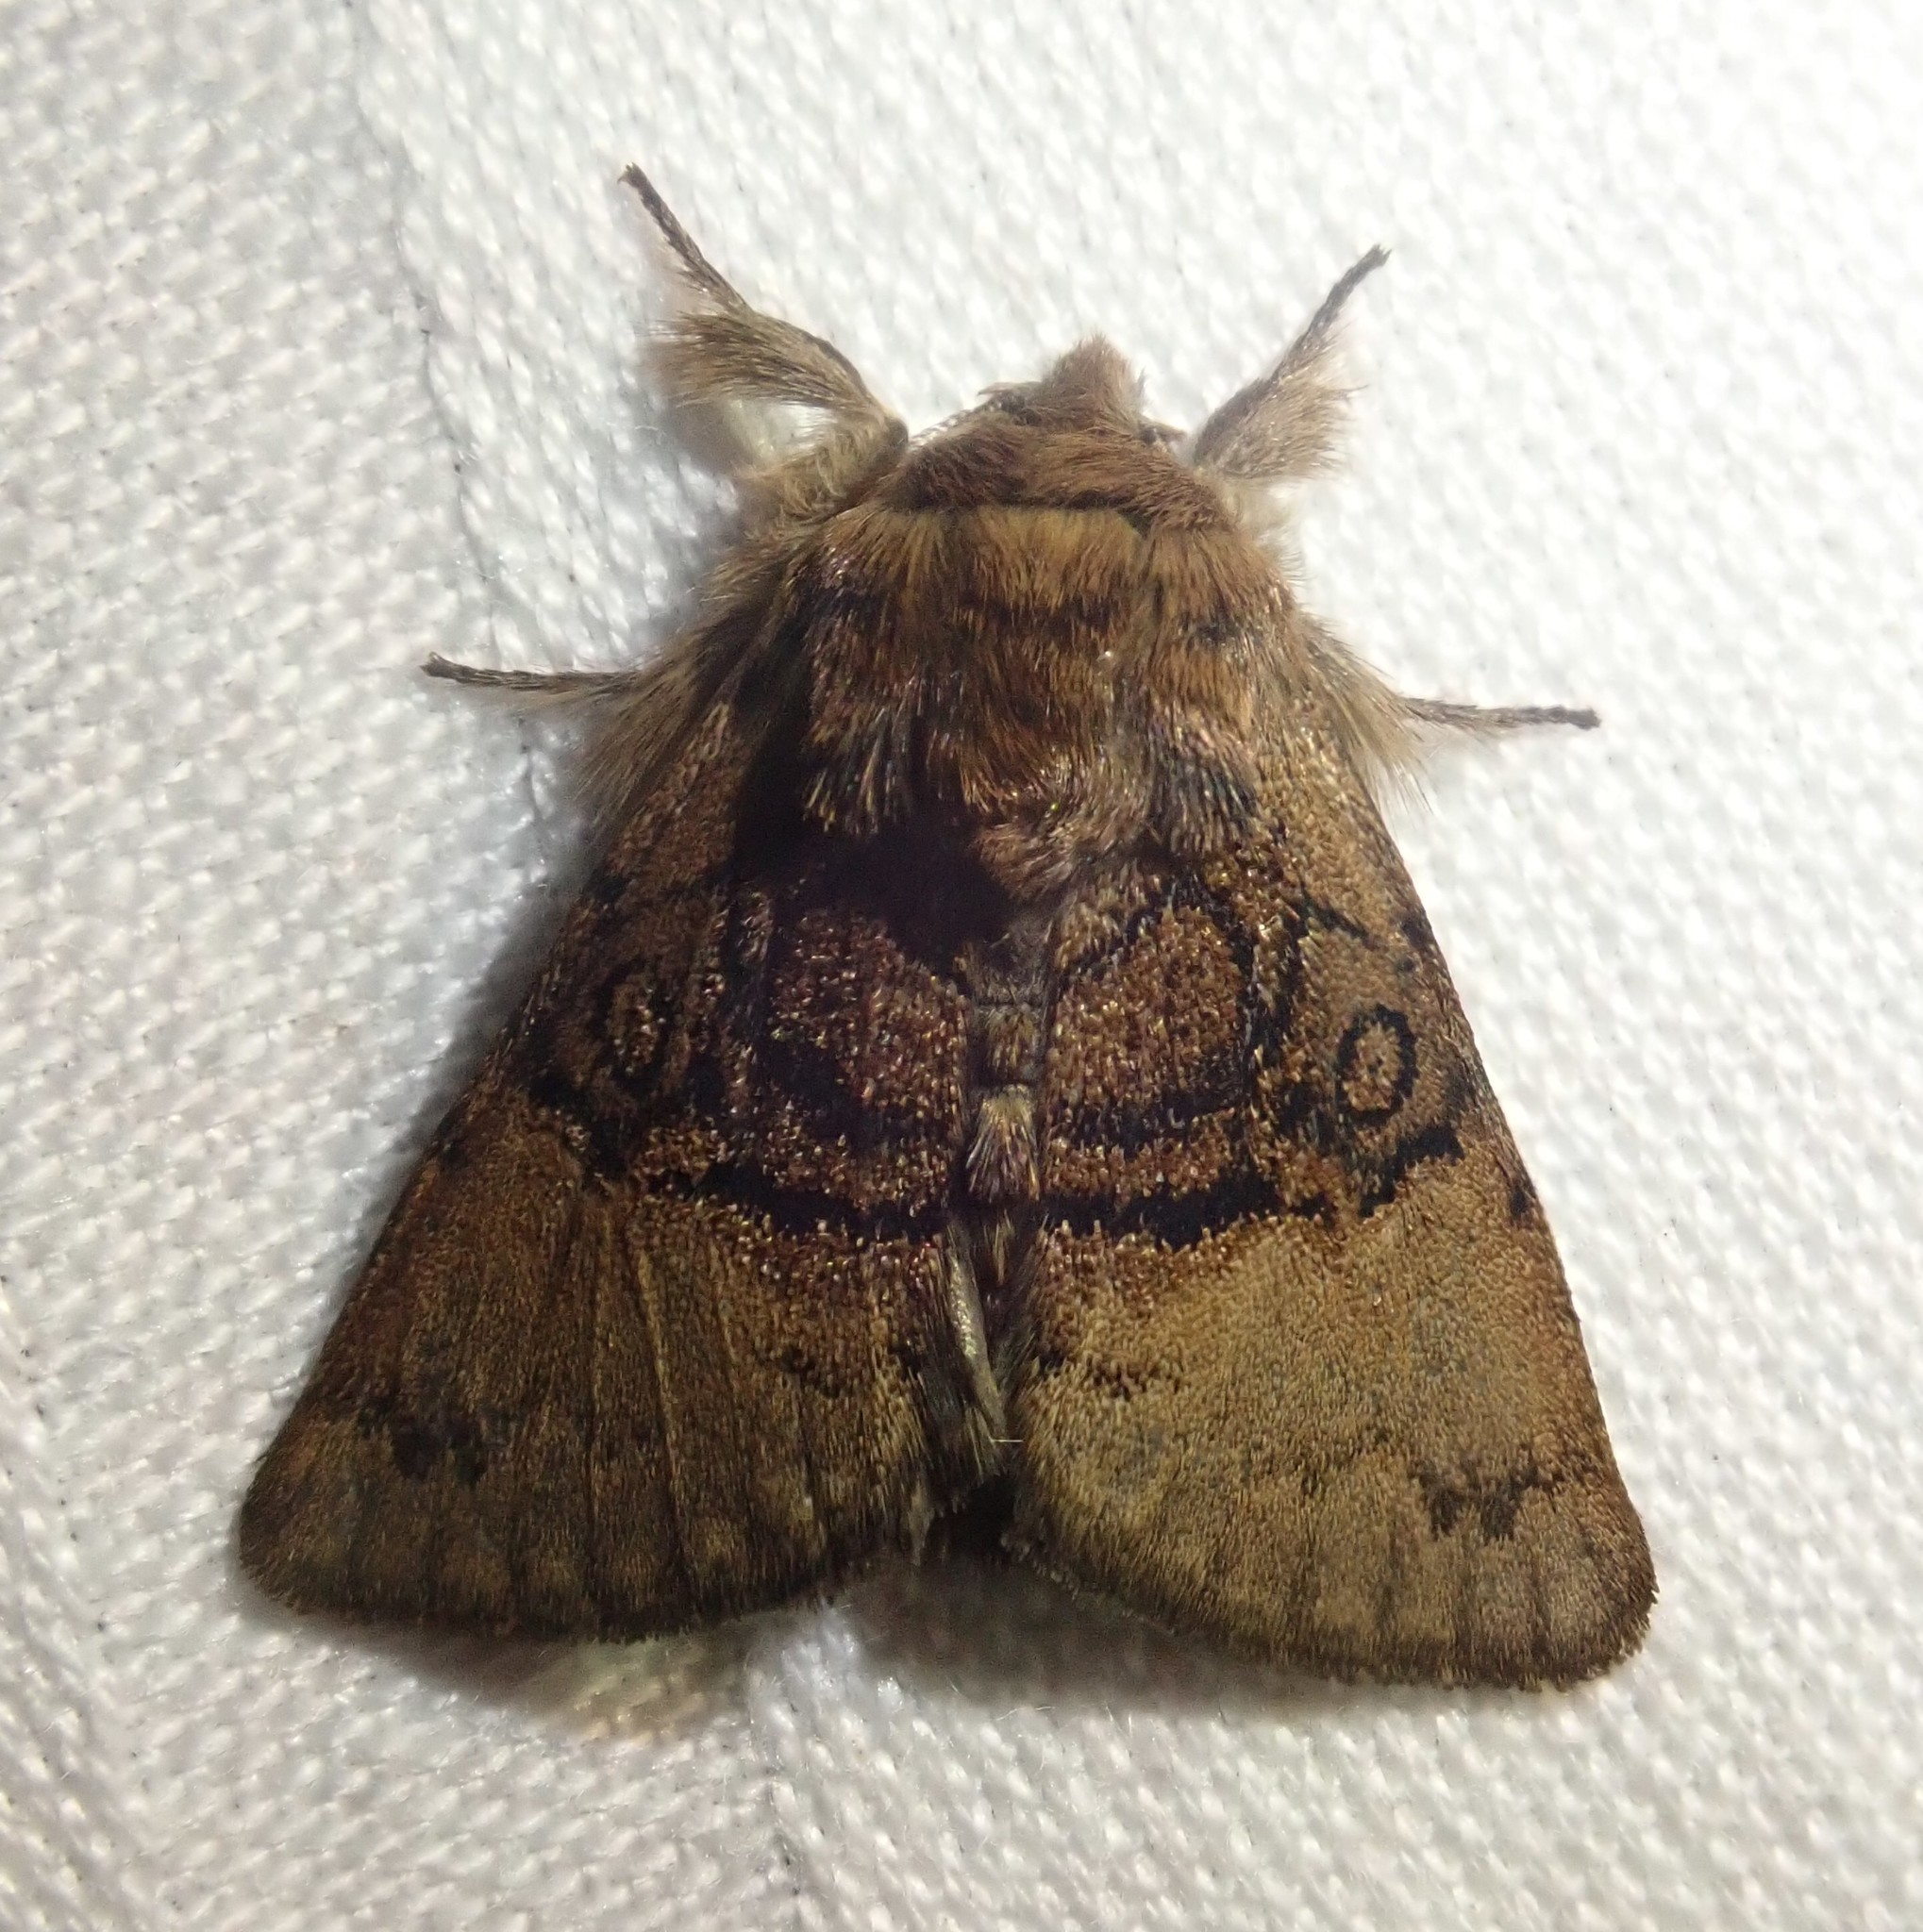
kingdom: Animalia
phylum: Arthropoda
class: Insecta
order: Lepidoptera
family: Noctuidae
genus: Colocasia
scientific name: Colocasia coryli
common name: Nut-tree tussock
